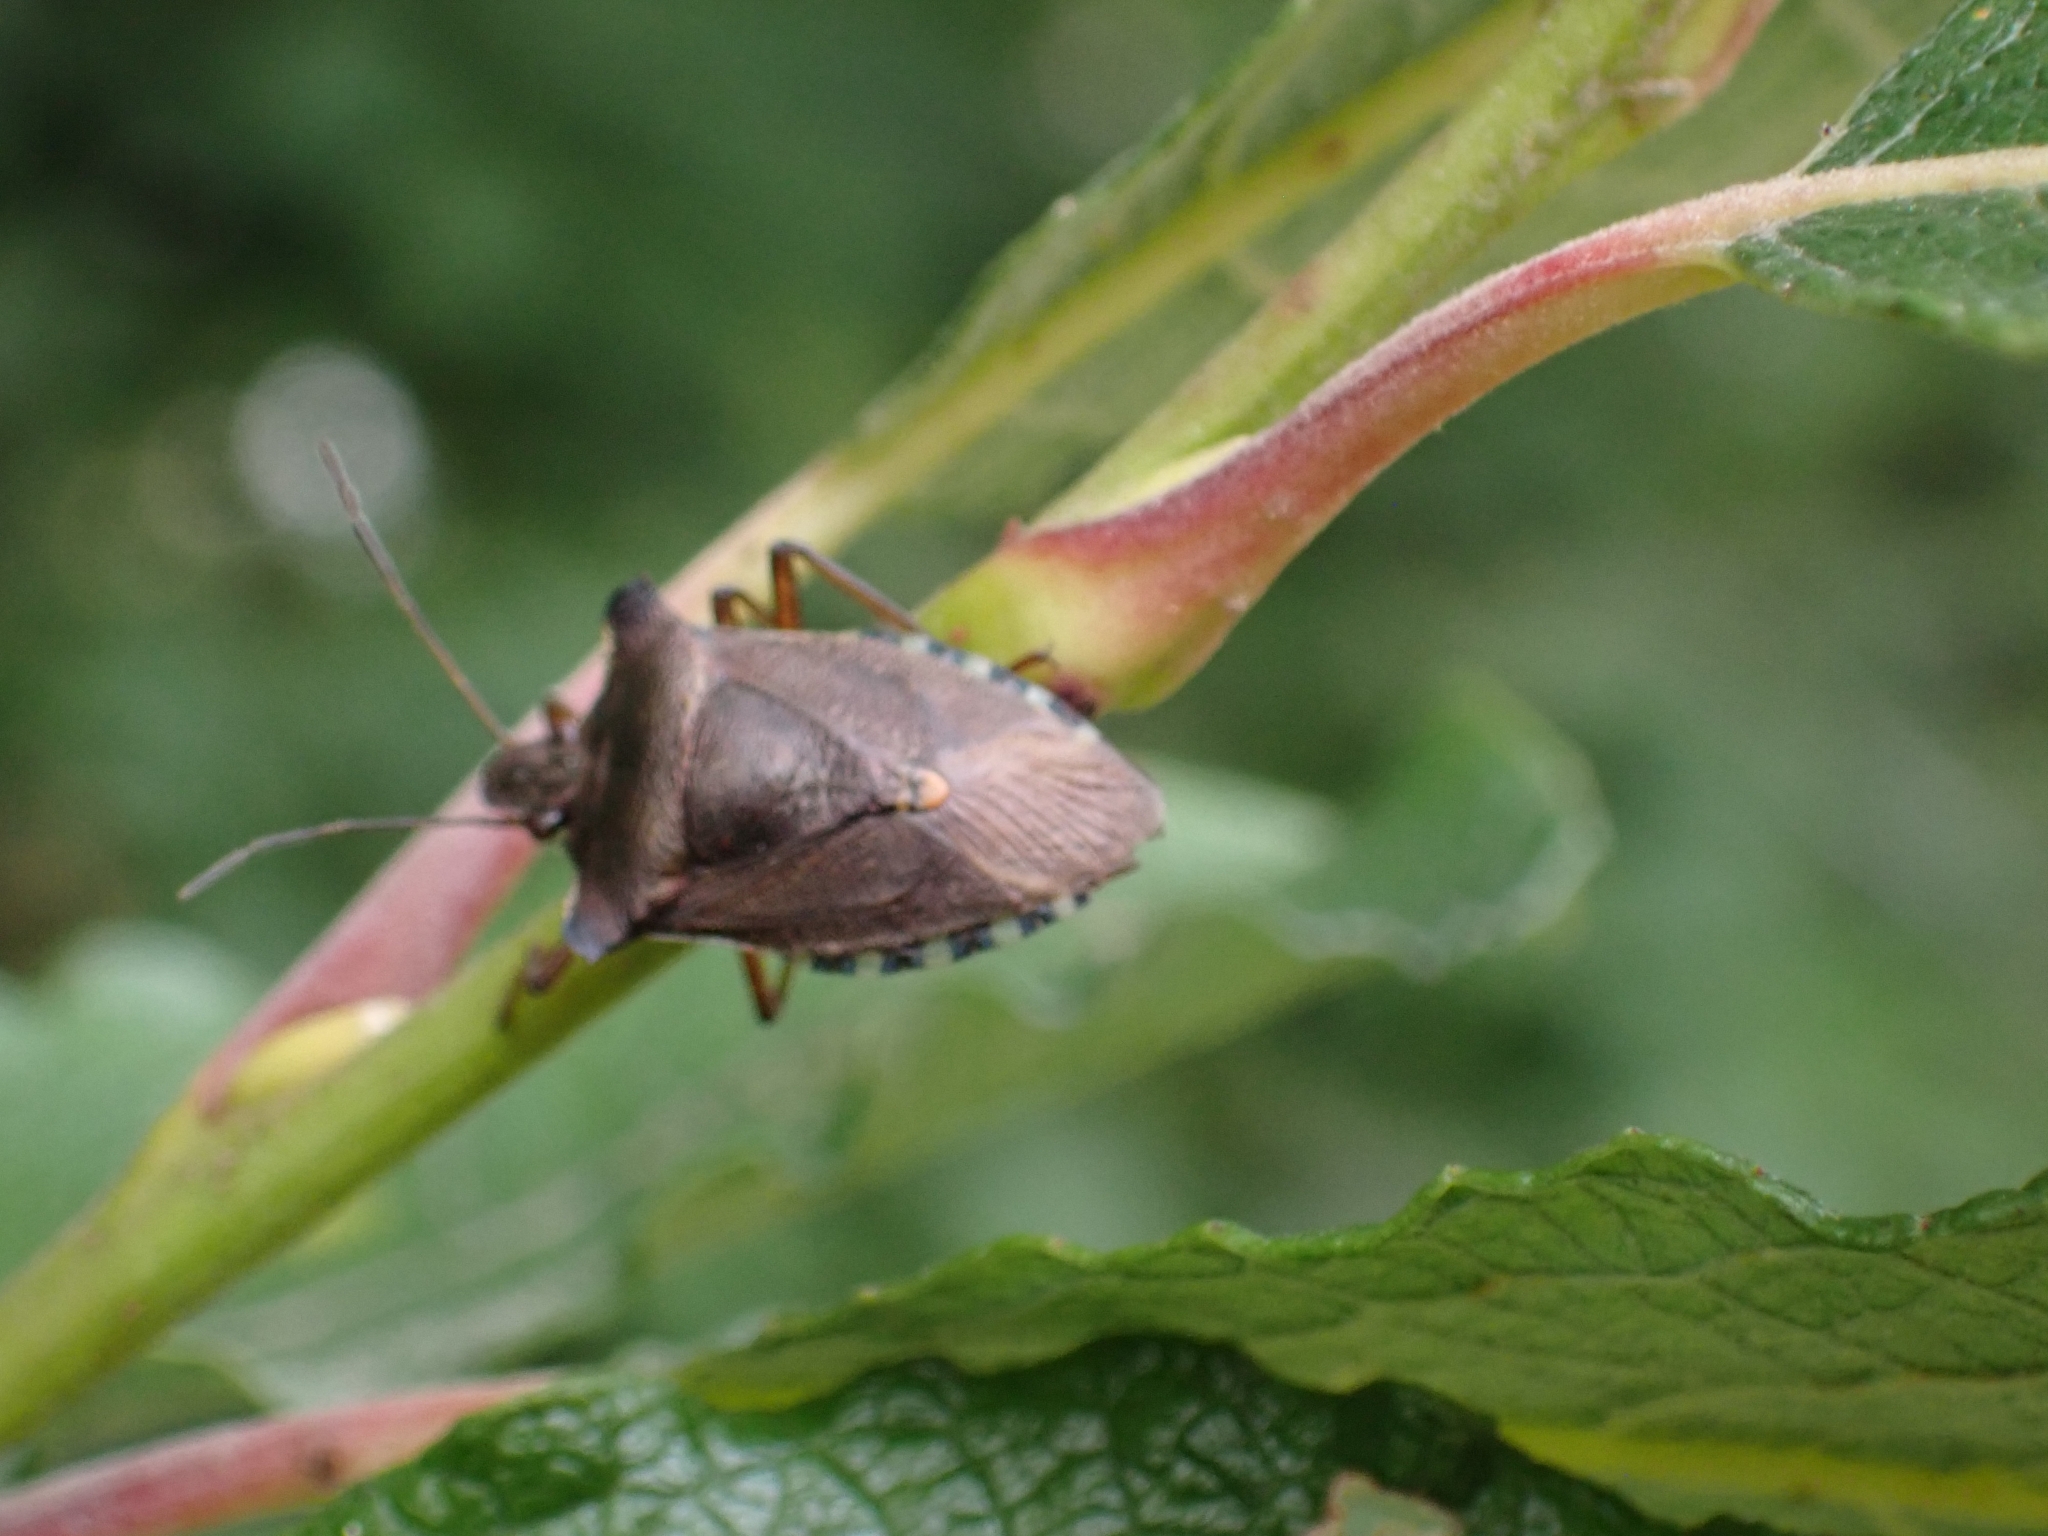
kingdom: Animalia
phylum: Arthropoda
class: Insecta
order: Hemiptera
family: Pentatomidae
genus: Pentatoma
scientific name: Pentatoma rufipes
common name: Forest bug
